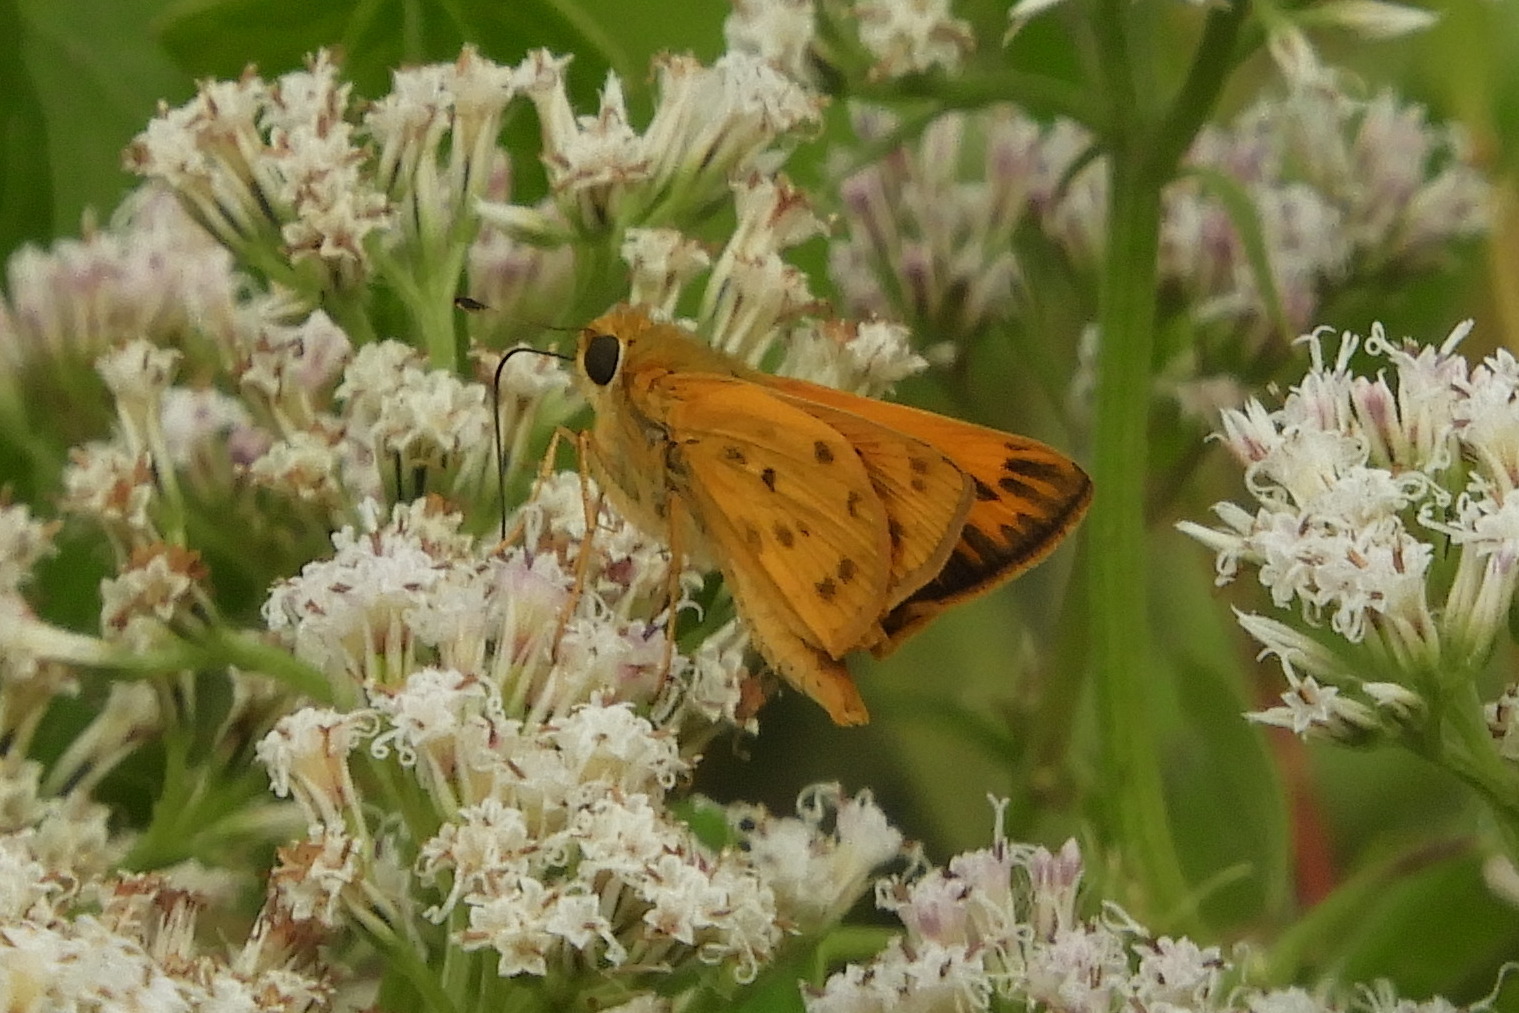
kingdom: Animalia
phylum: Arthropoda
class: Insecta
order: Lepidoptera
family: Hesperiidae
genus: Hylephila
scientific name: Hylephila phyleus
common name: Fiery skipper
